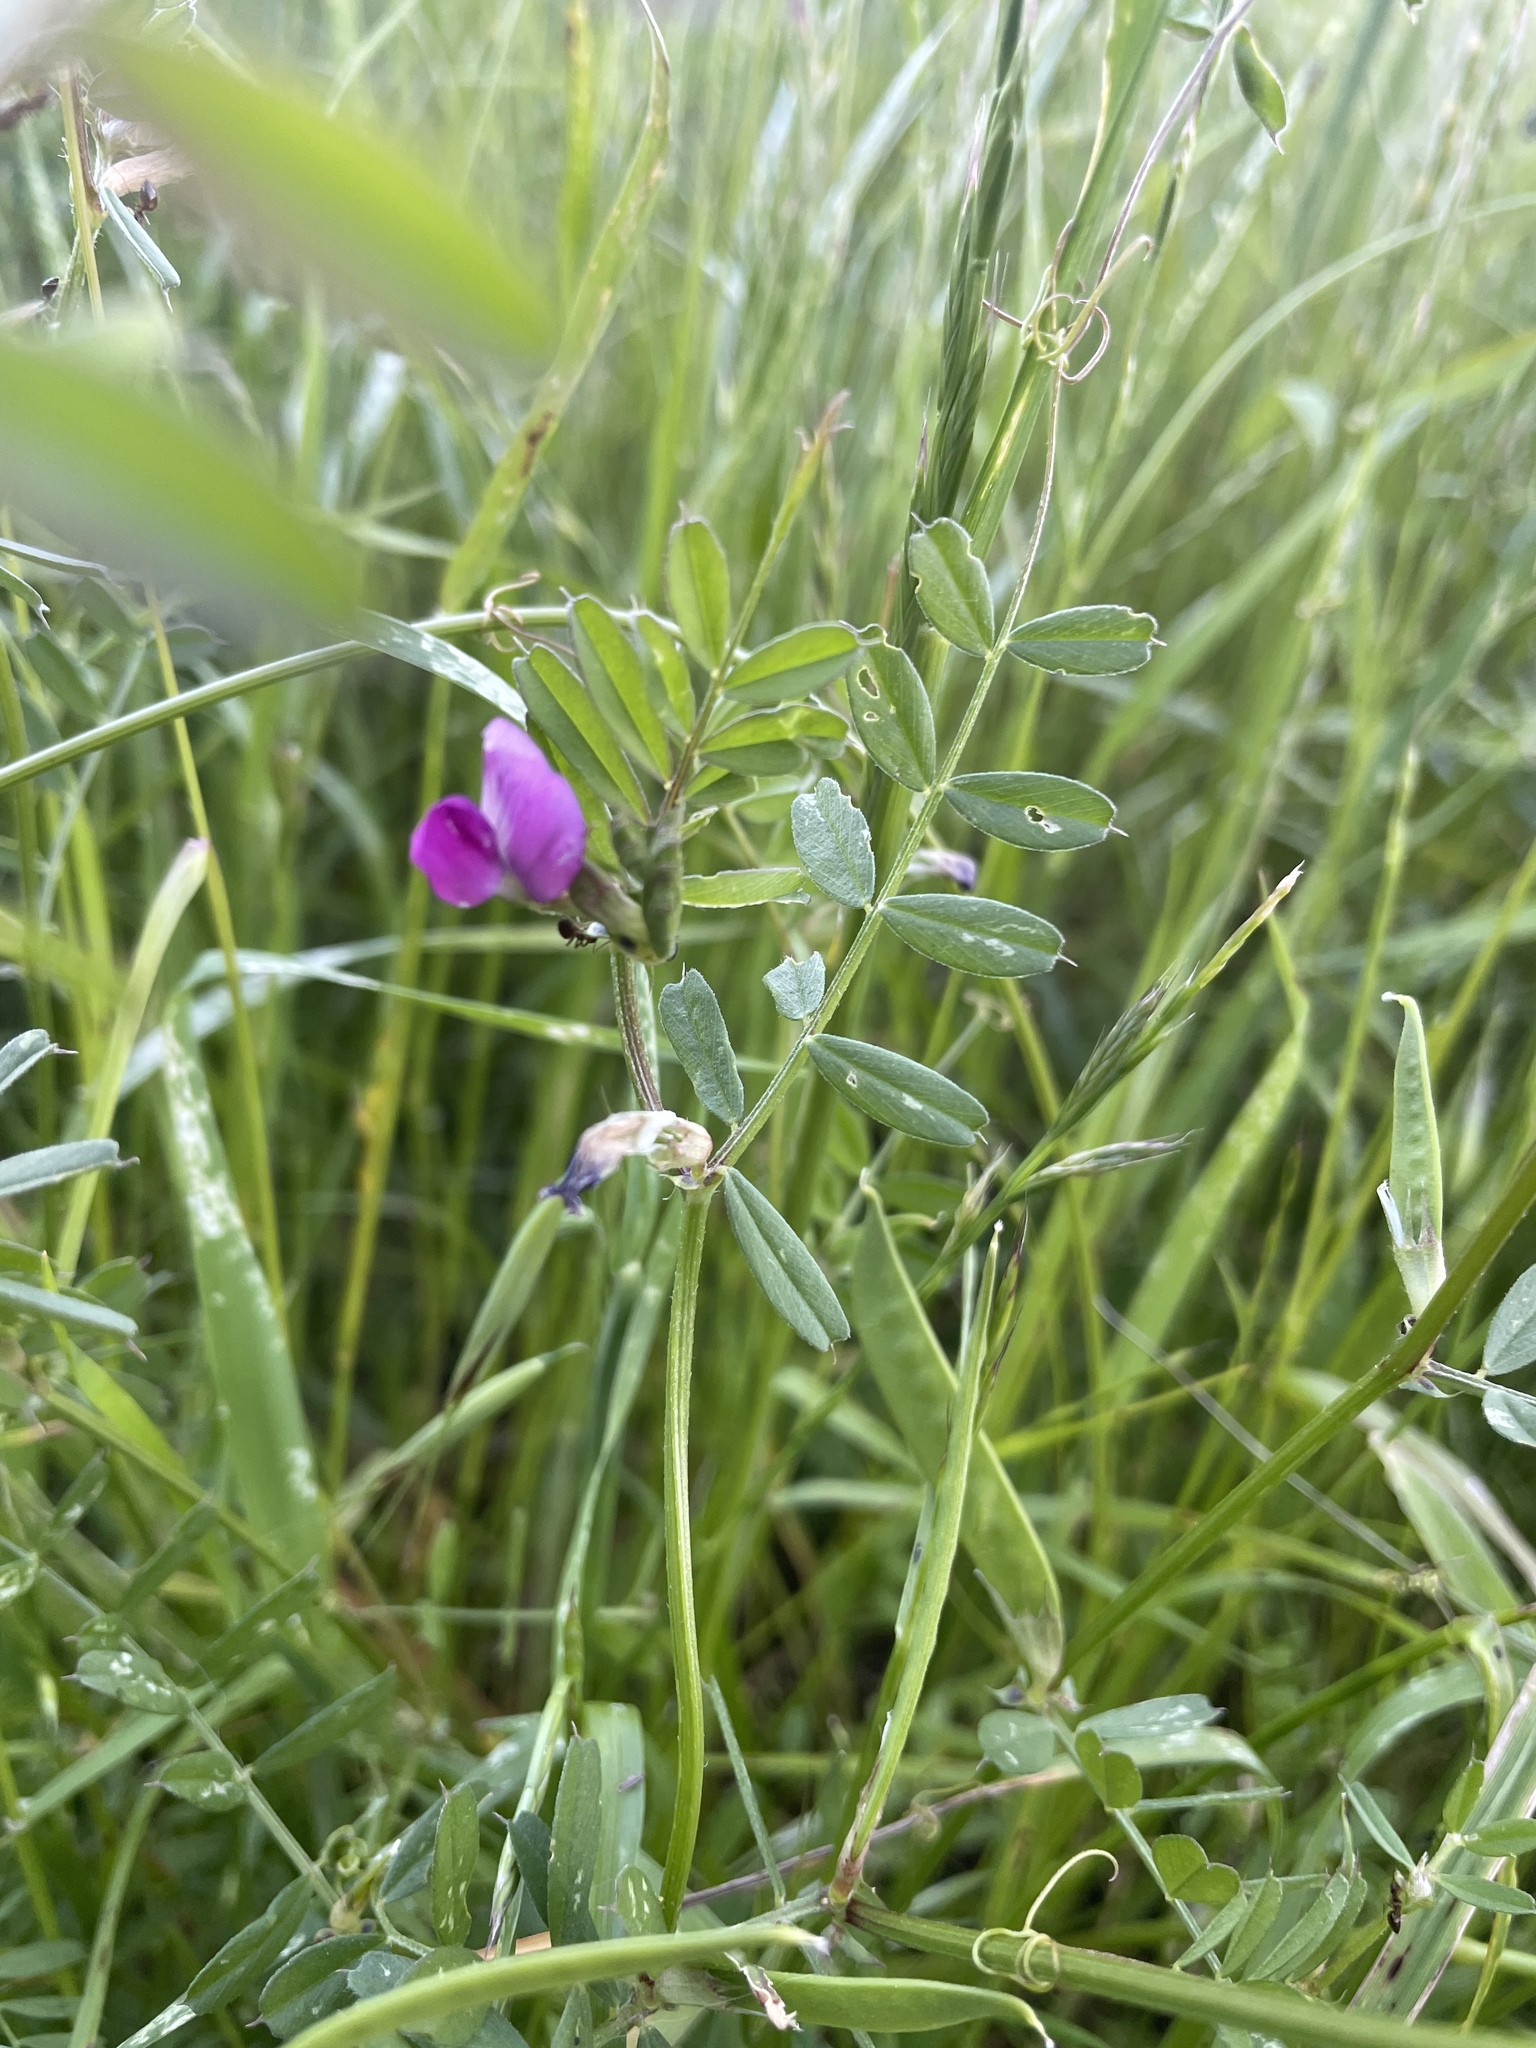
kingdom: Plantae
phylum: Tracheophyta
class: Magnoliopsida
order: Fabales
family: Fabaceae
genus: Vicia
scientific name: Vicia sativa
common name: Garden vetch
